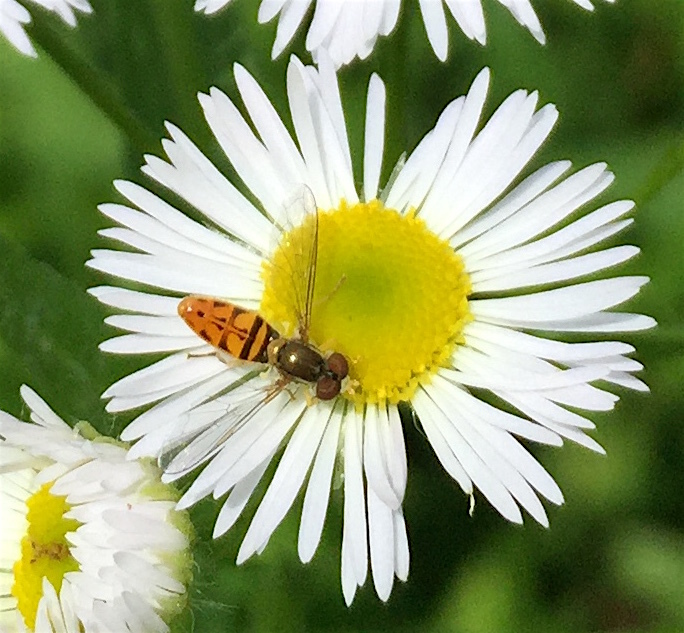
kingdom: Animalia
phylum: Arthropoda
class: Insecta
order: Diptera
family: Syrphidae
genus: Toxomerus
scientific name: Toxomerus marginatus
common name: Syrphid fly
